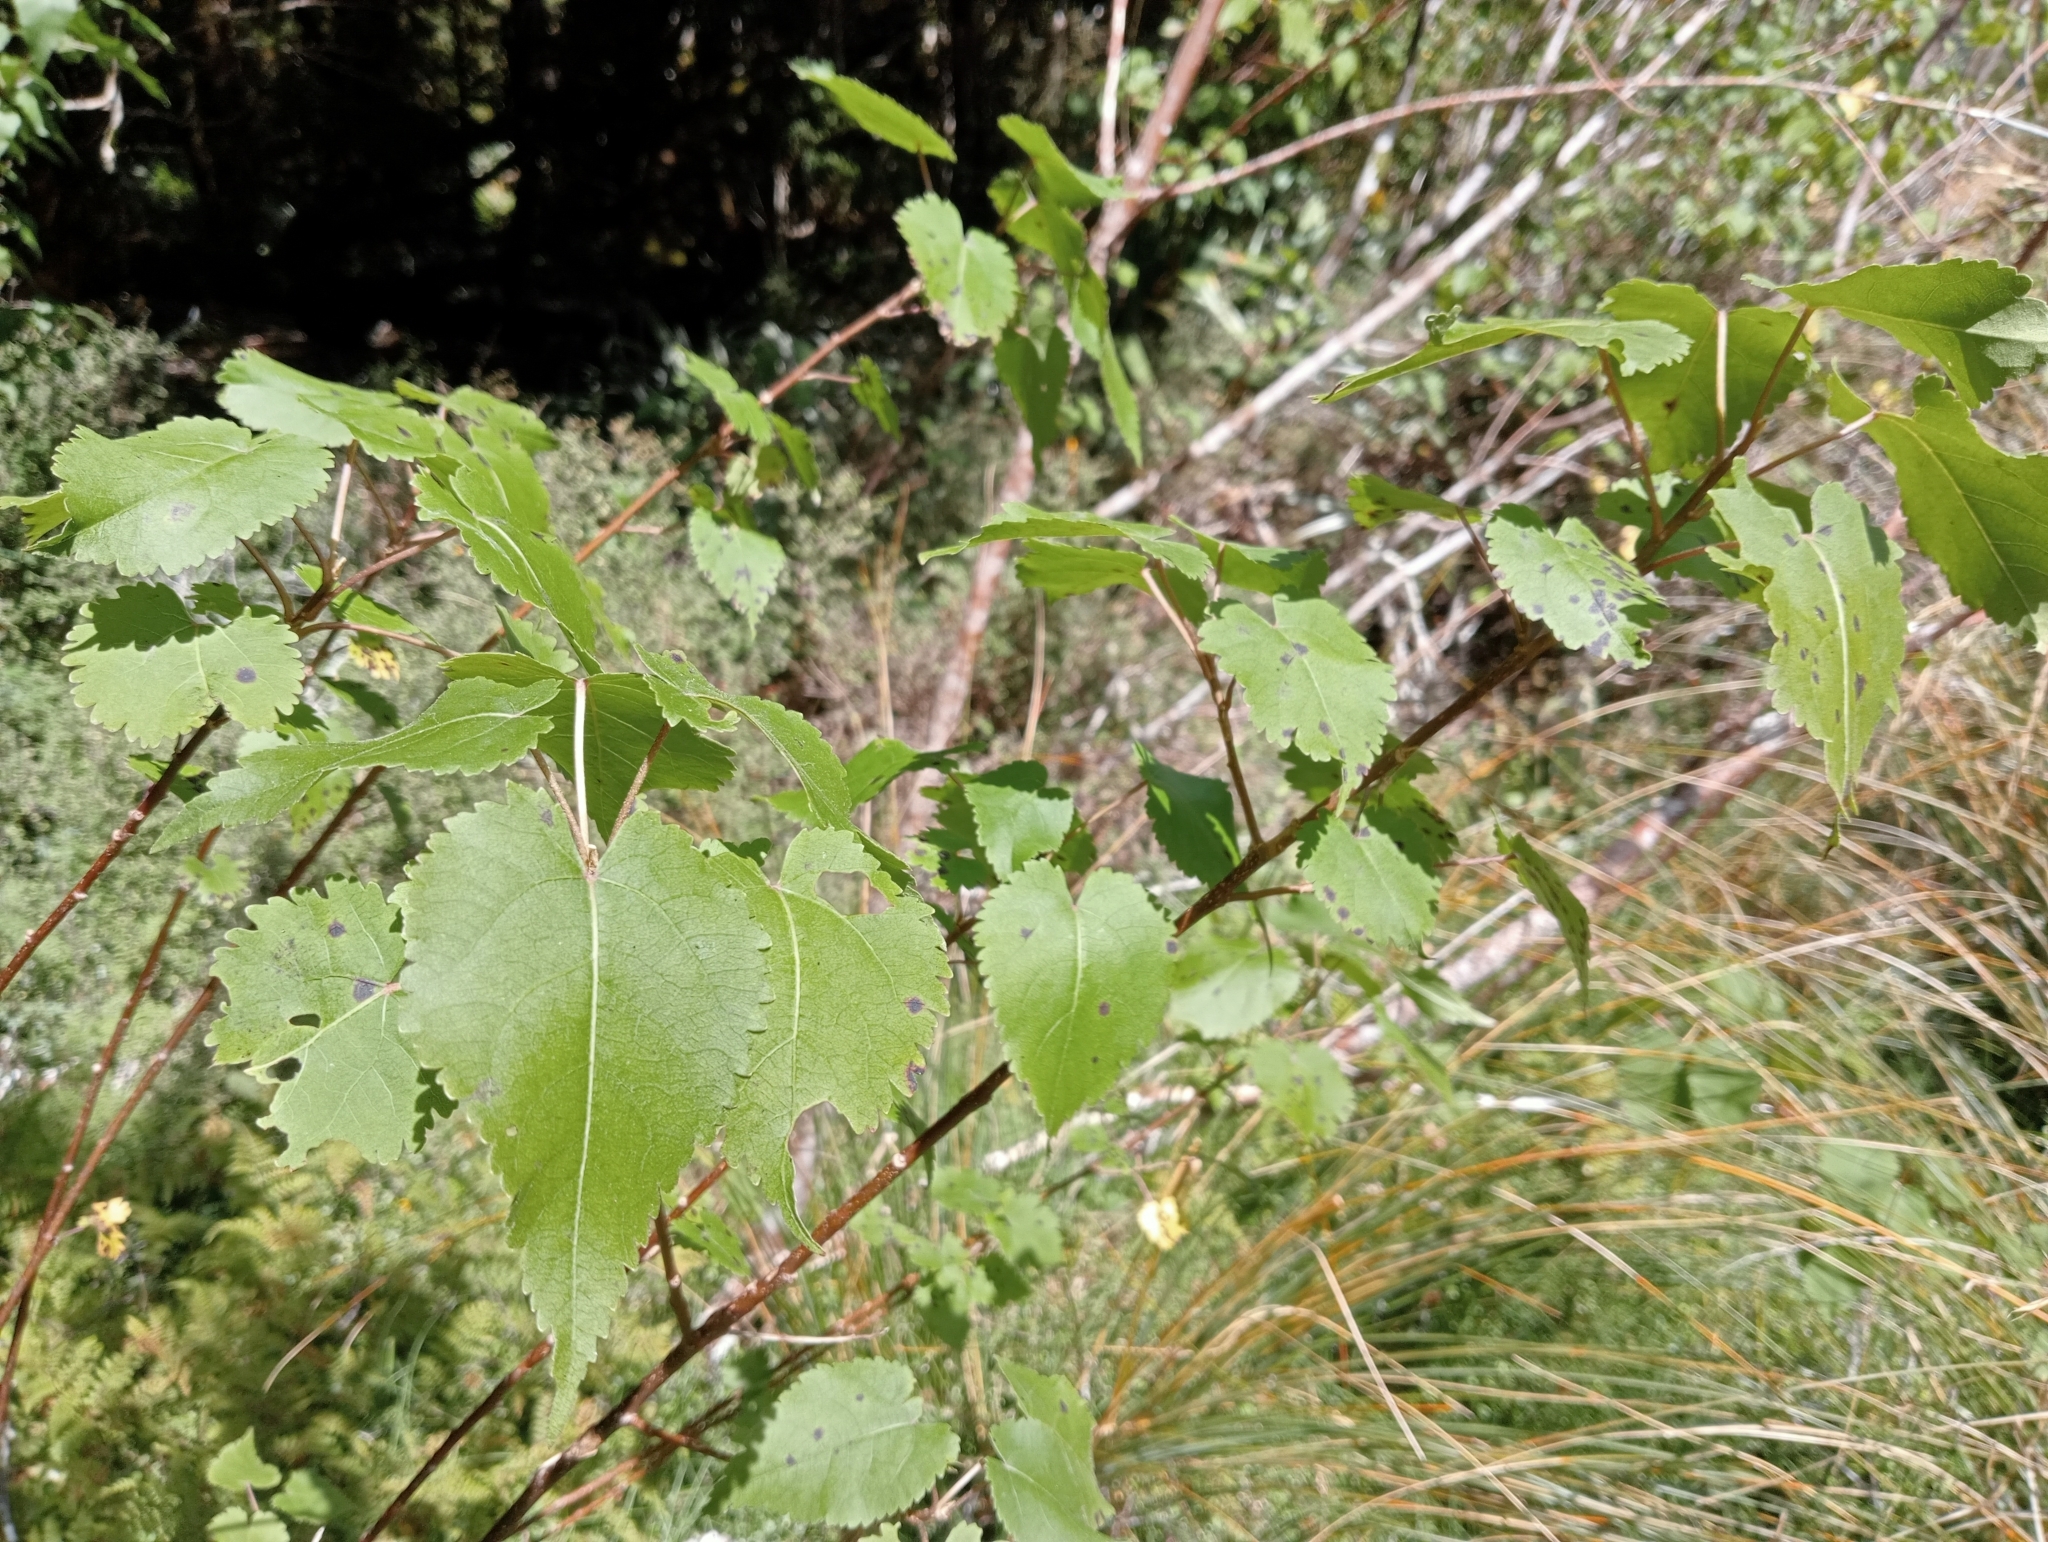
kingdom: Plantae
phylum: Tracheophyta
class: Magnoliopsida
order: Malvales
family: Malvaceae
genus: Hoheria
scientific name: Hoheria glabrata
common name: Mountain-ribbon
